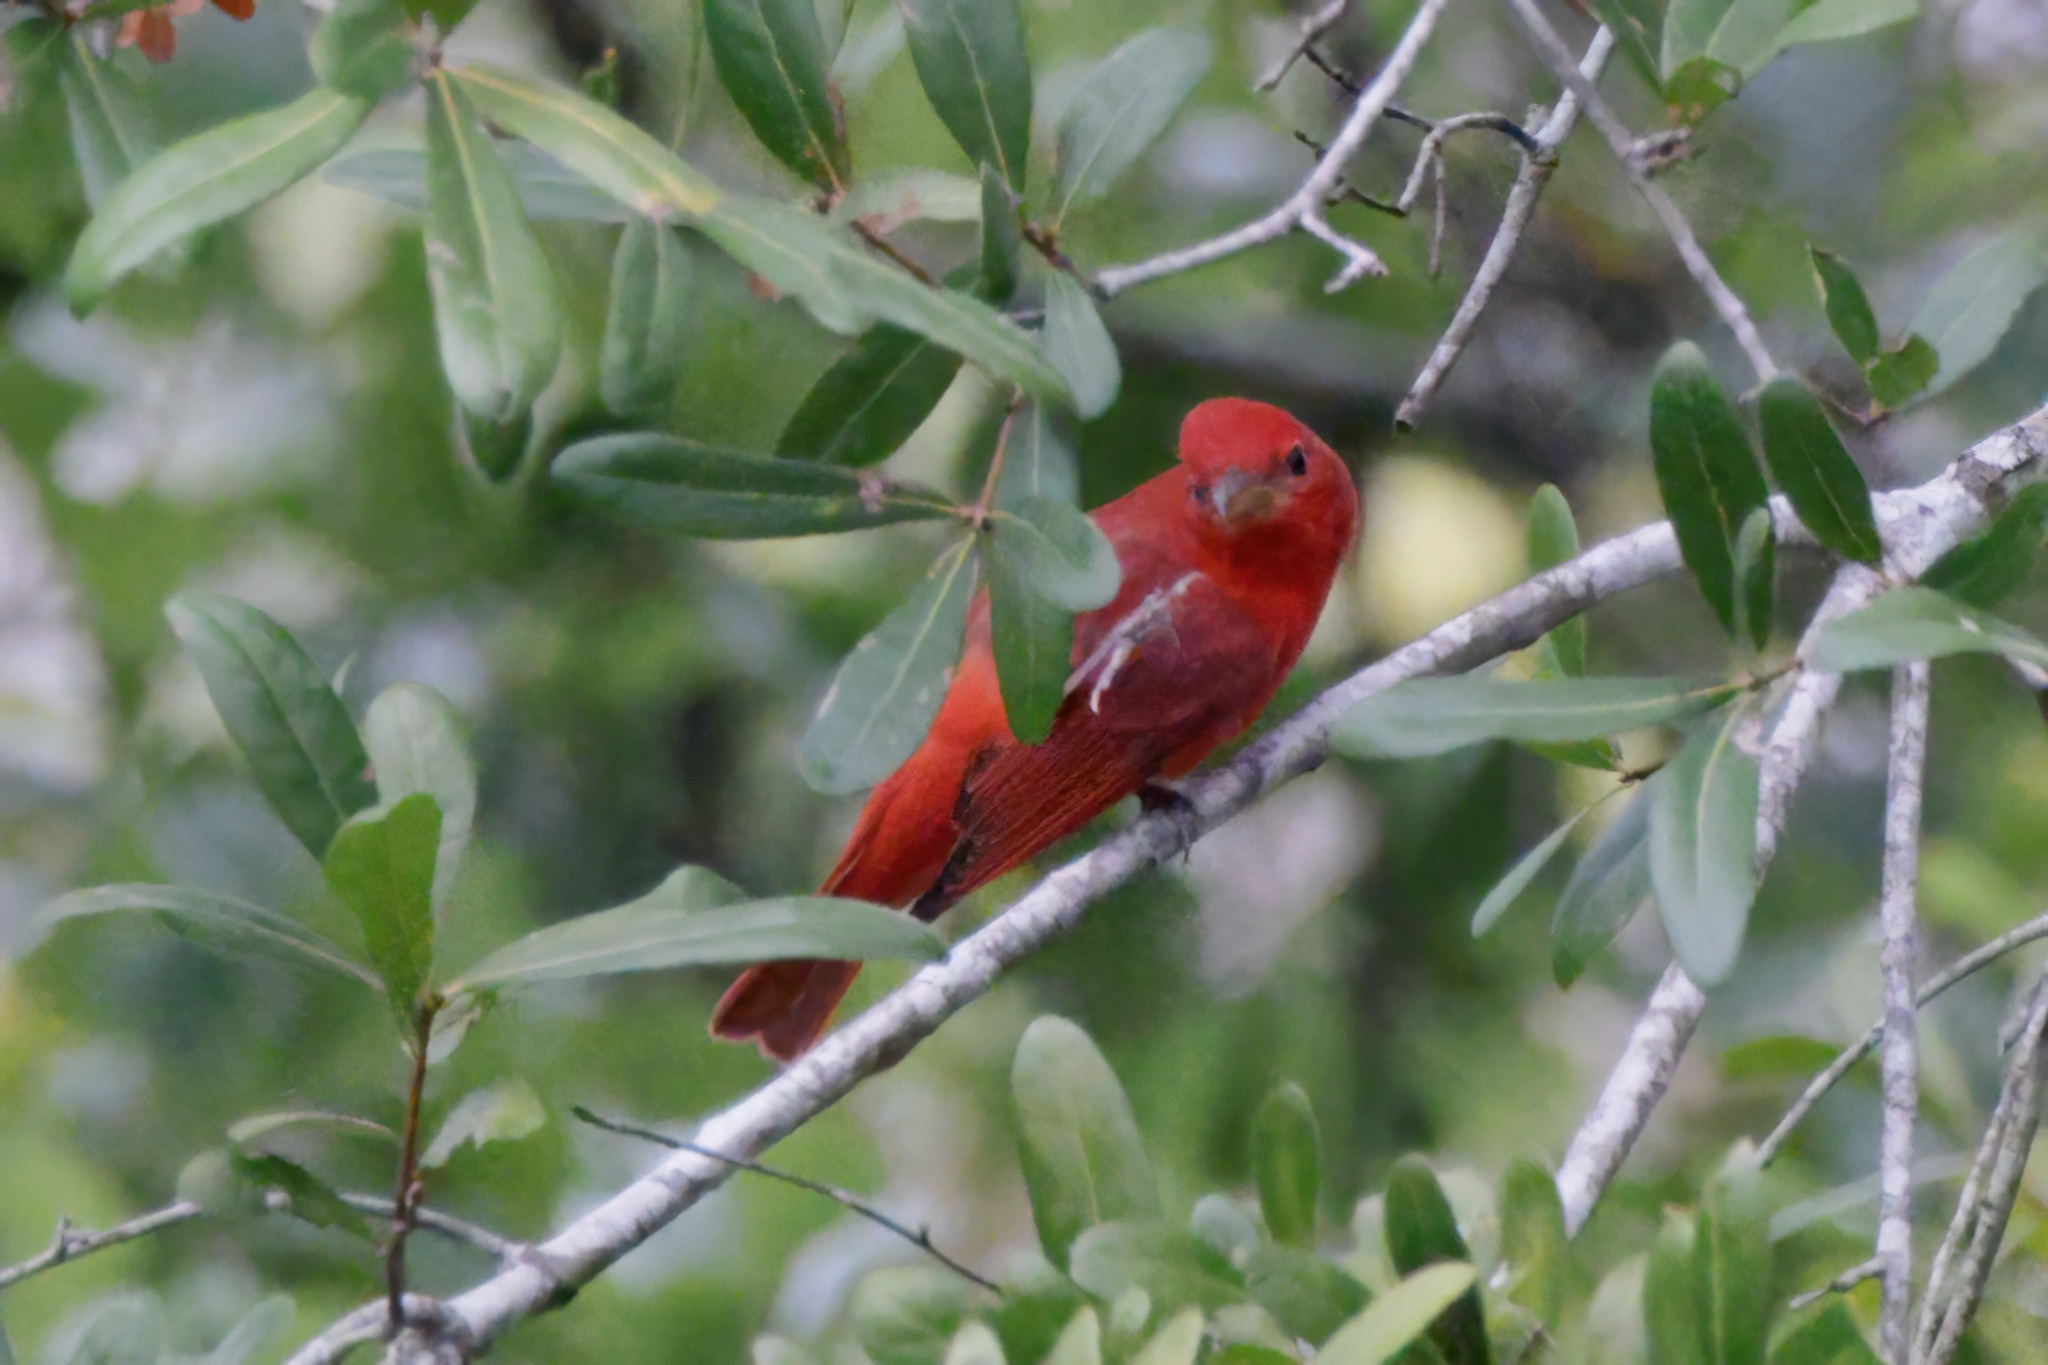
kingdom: Animalia
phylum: Chordata
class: Aves
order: Passeriformes
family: Cardinalidae
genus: Piranga
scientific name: Piranga rubra
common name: Summer tanager
